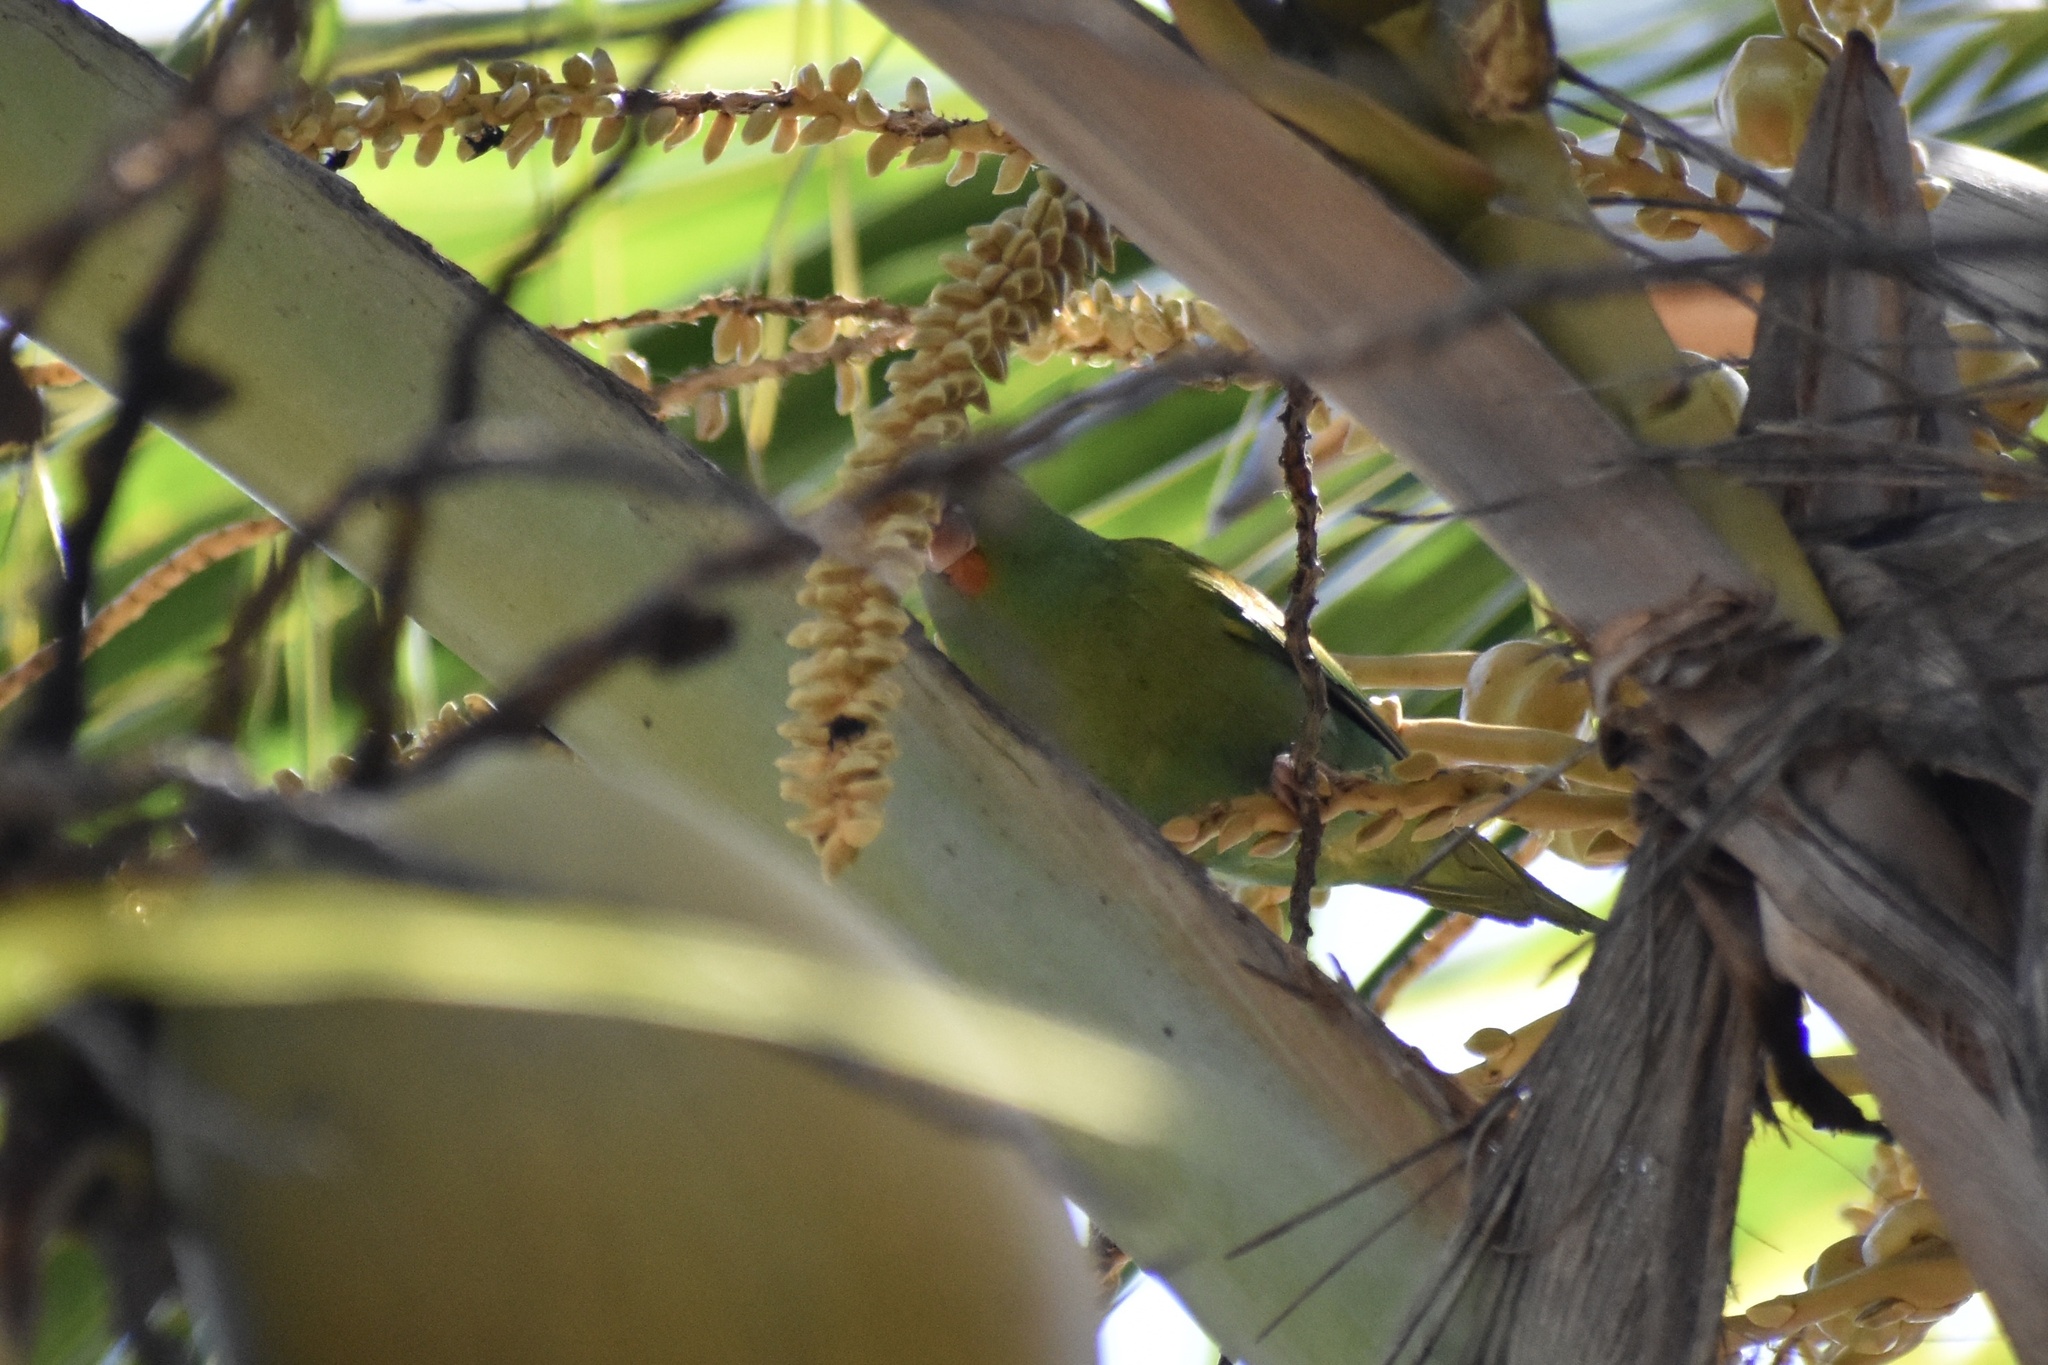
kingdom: Animalia
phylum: Chordata
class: Aves
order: Psittaciformes
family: Psittacidae
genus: Brotogeris
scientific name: Brotogeris jugularis
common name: Orange-chinned parakeet
